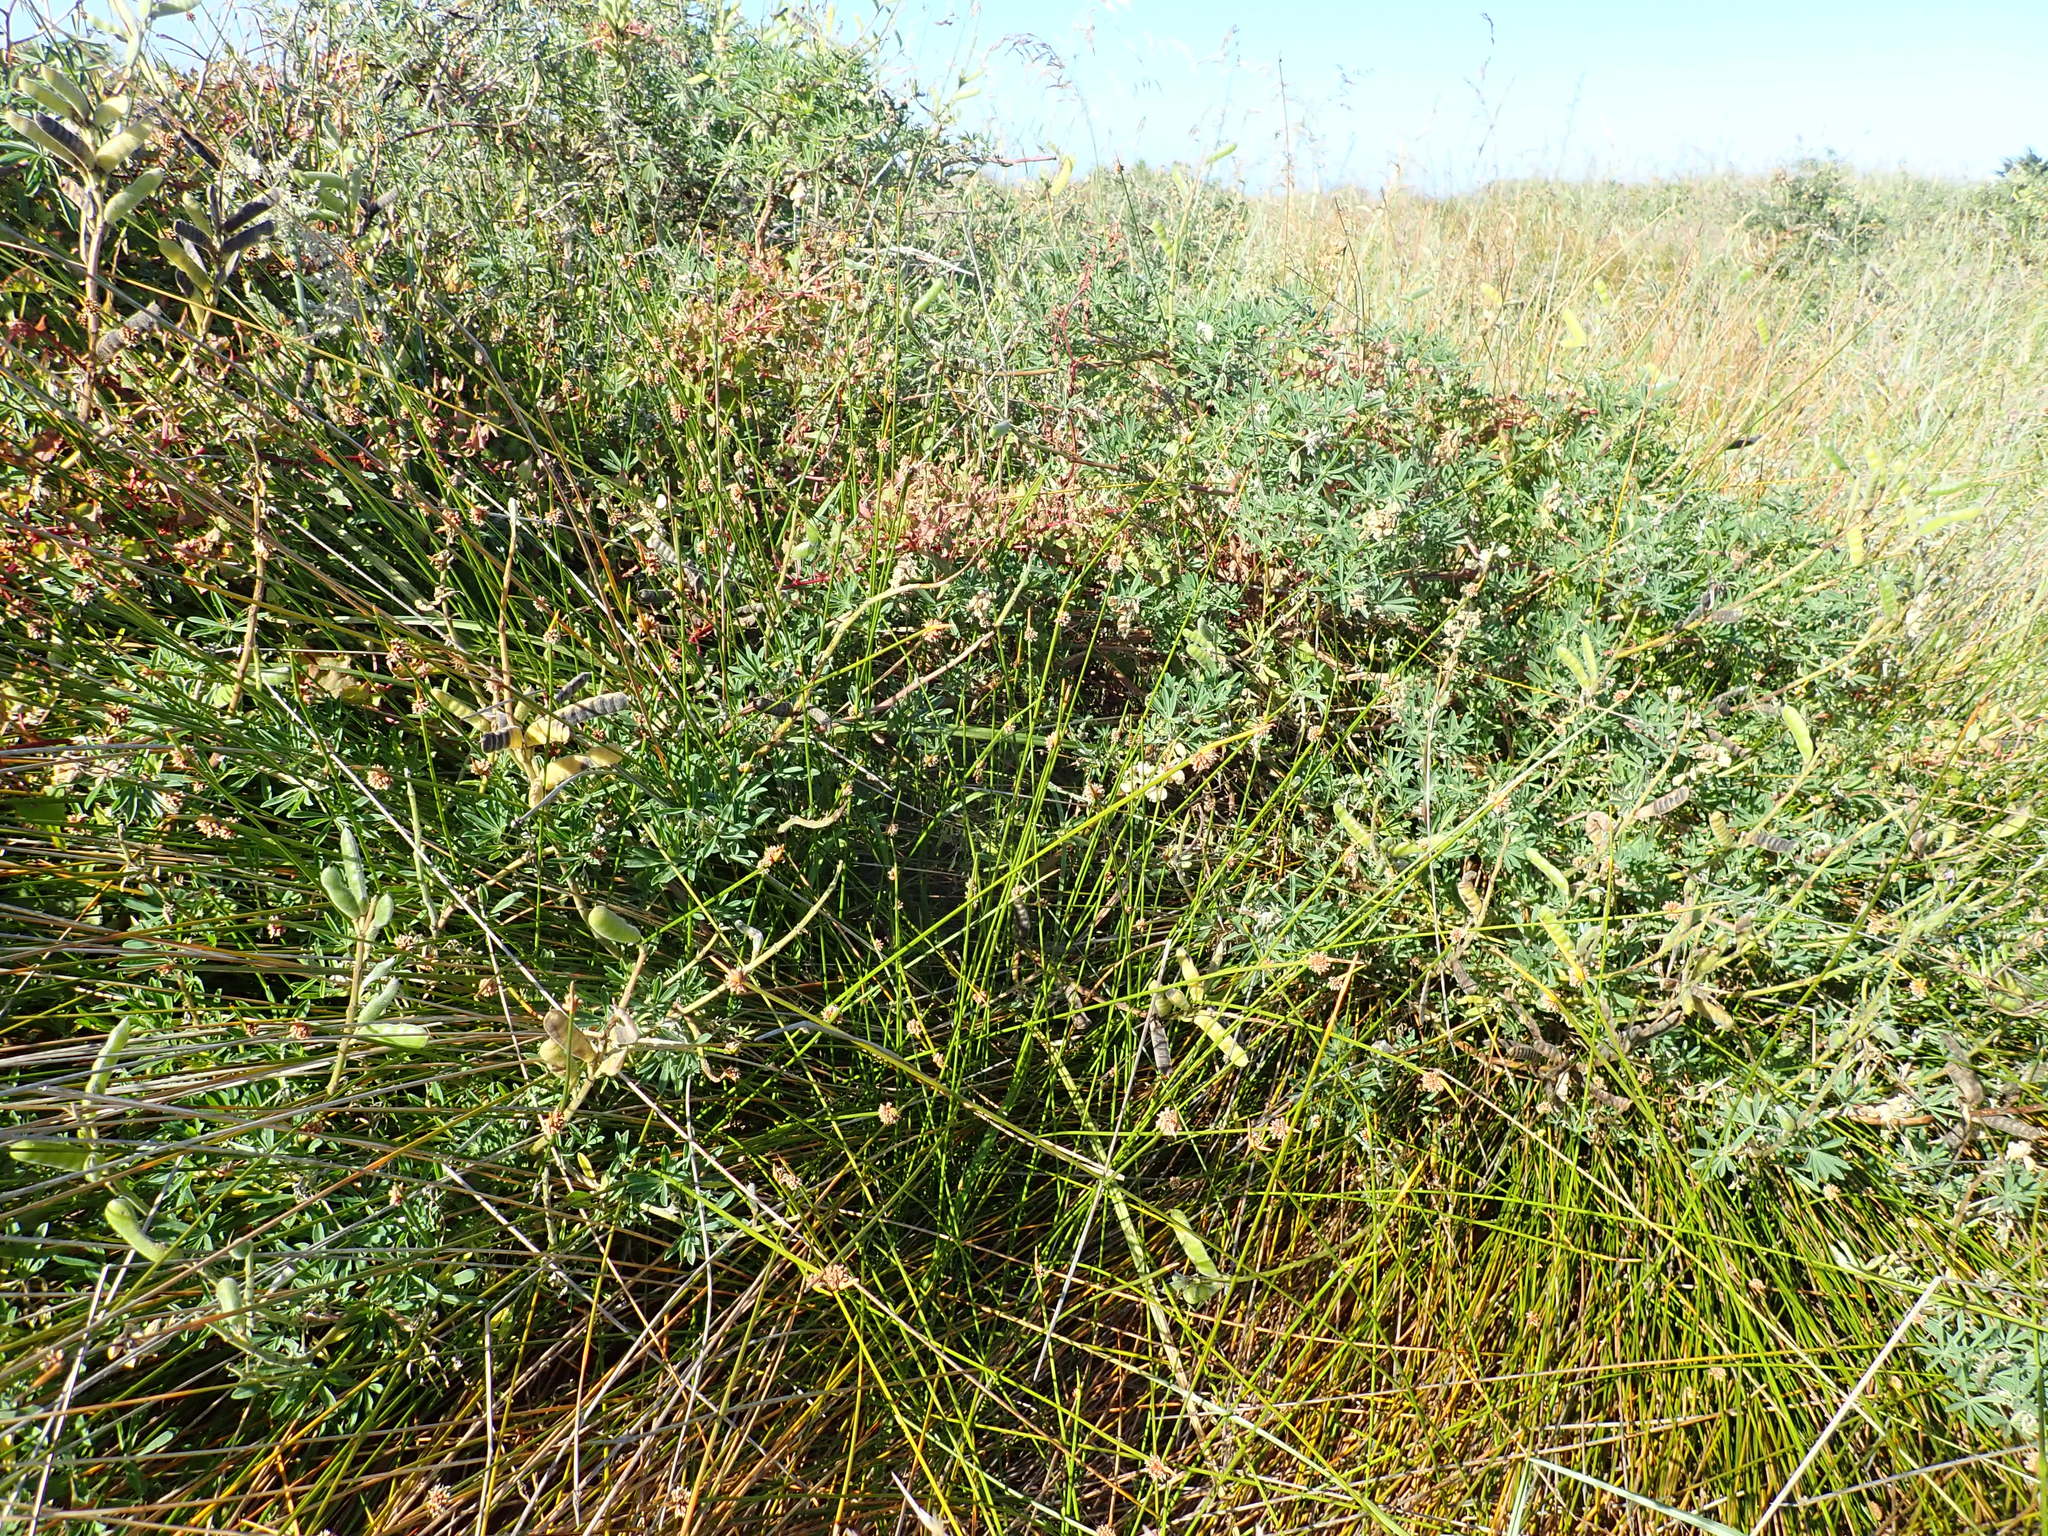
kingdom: Plantae
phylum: Tracheophyta
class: Magnoliopsida
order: Fabales
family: Fabaceae
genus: Lupinus
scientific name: Lupinus arboreus
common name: Yellow bush lupine
